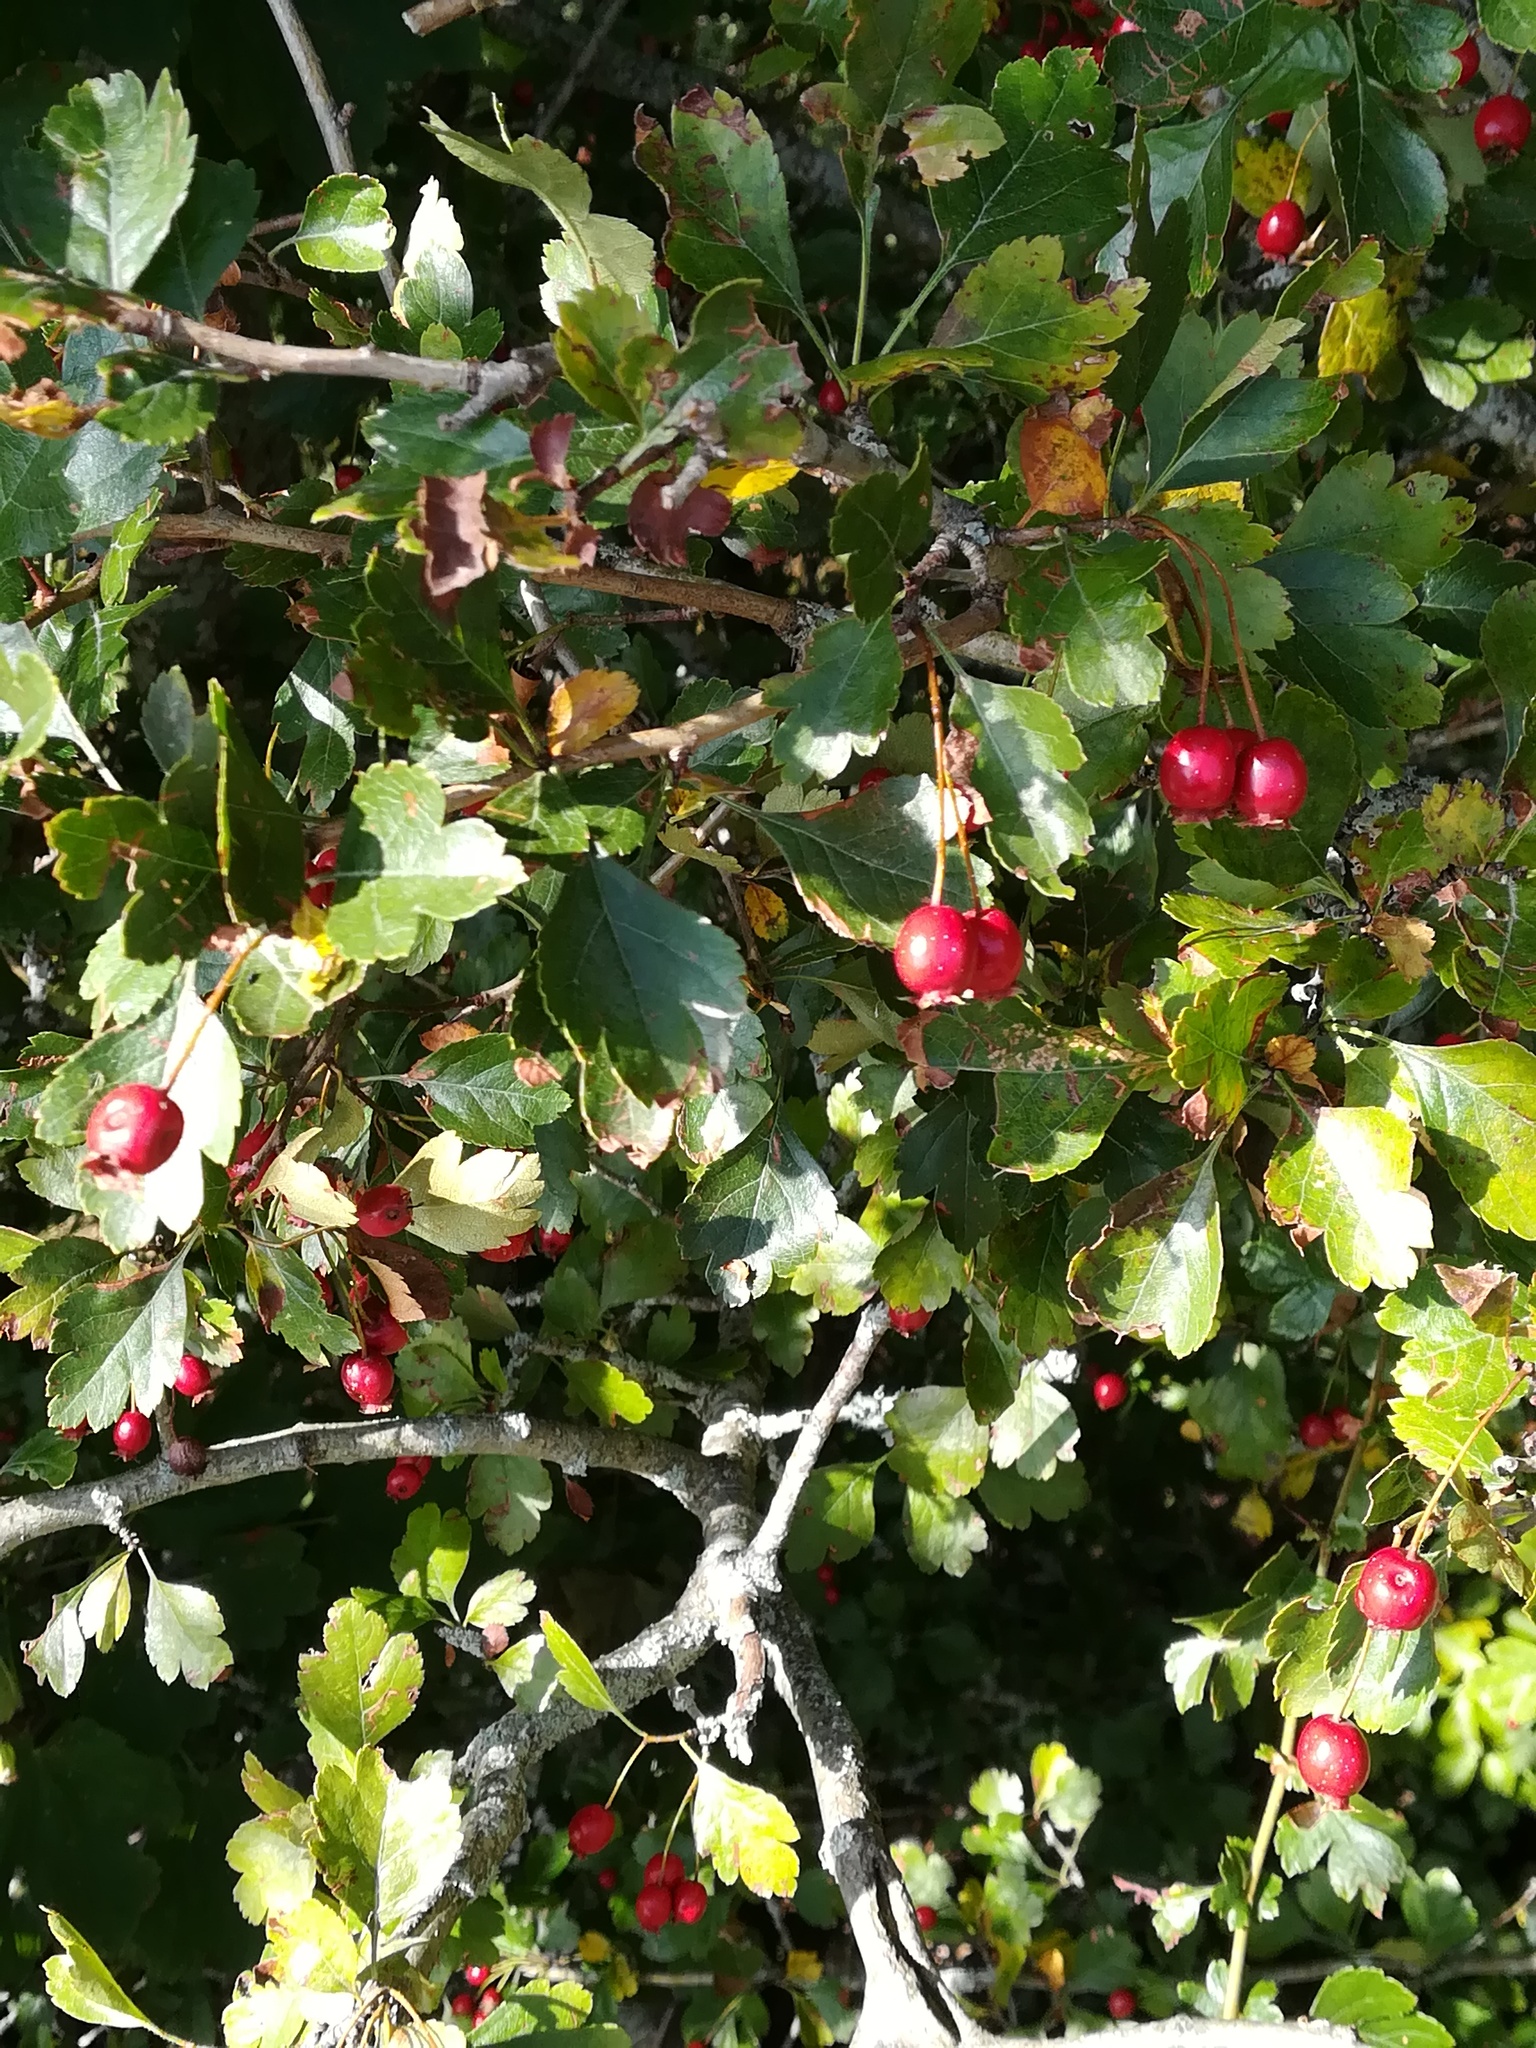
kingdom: Plantae
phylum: Tracheophyta
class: Magnoliopsida
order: Rosales
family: Rosaceae
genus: Crataegus
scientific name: Crataegus laevigata
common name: Midland hawthorn
